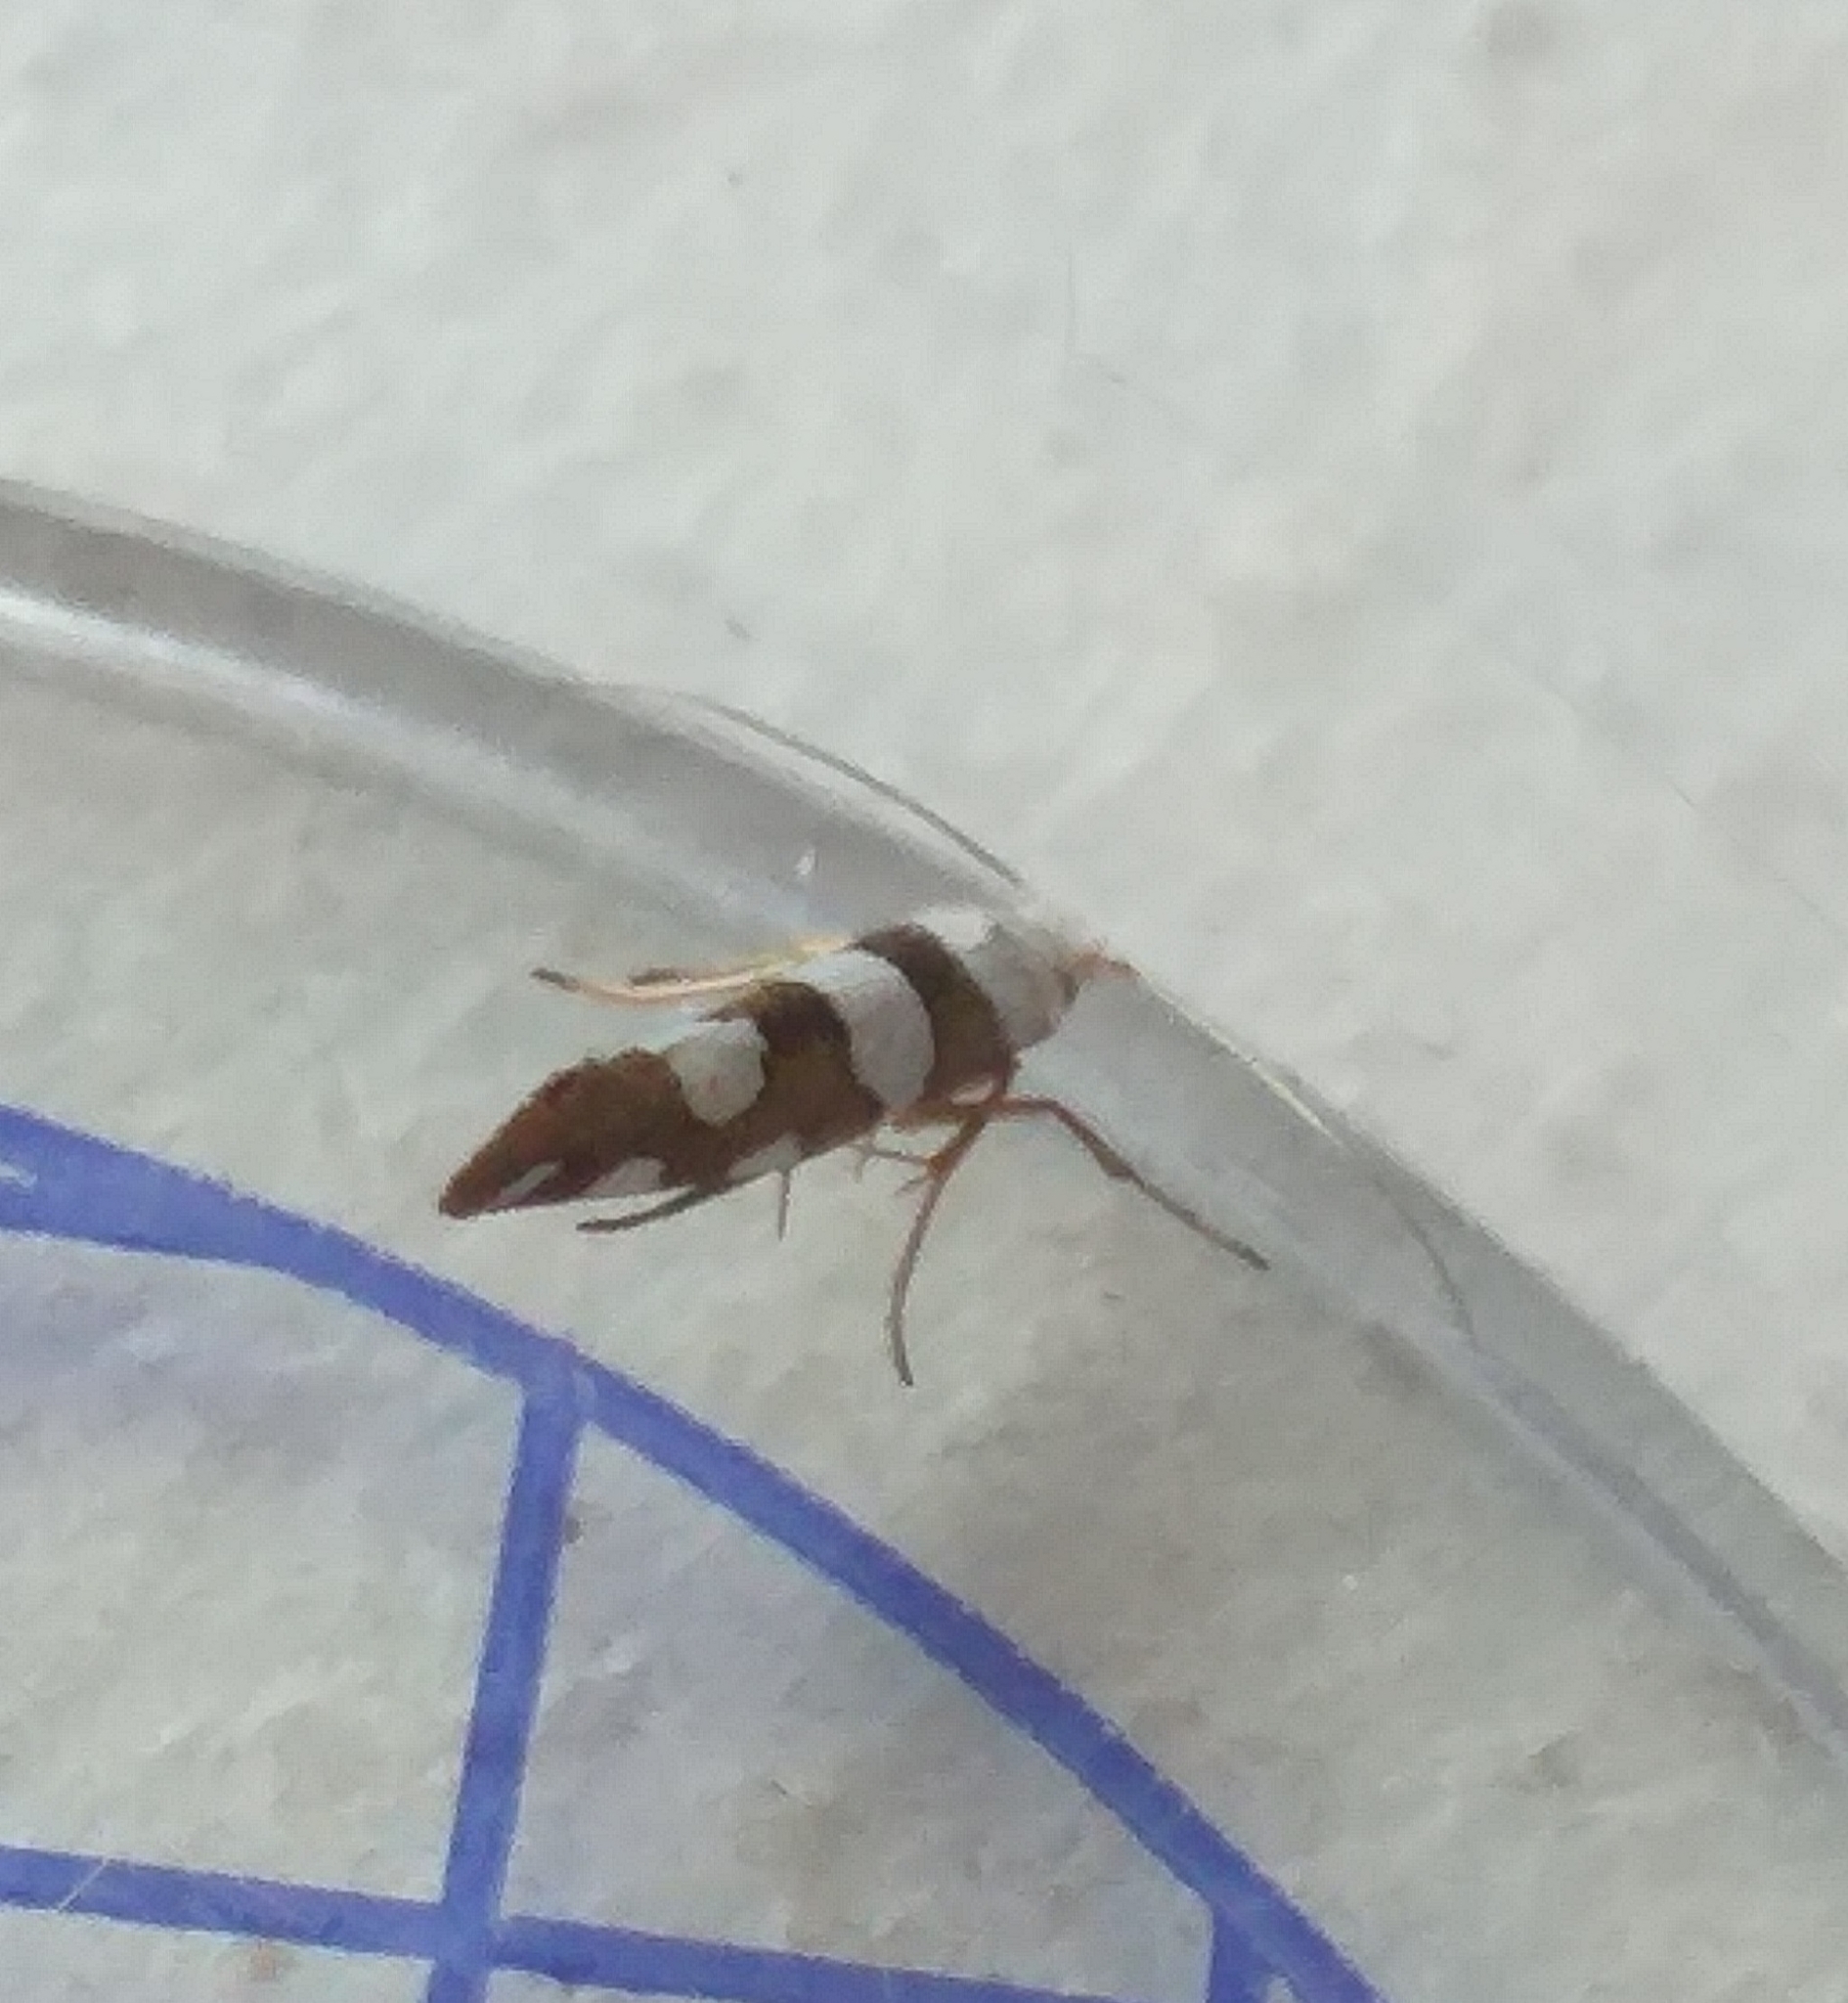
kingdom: Animalia
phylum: Arthropoda
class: Insecta
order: Lepidoptera
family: Argyresthiidae
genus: Argyresthia
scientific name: Argyresthia brockeella
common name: Gold-ribbon argent
